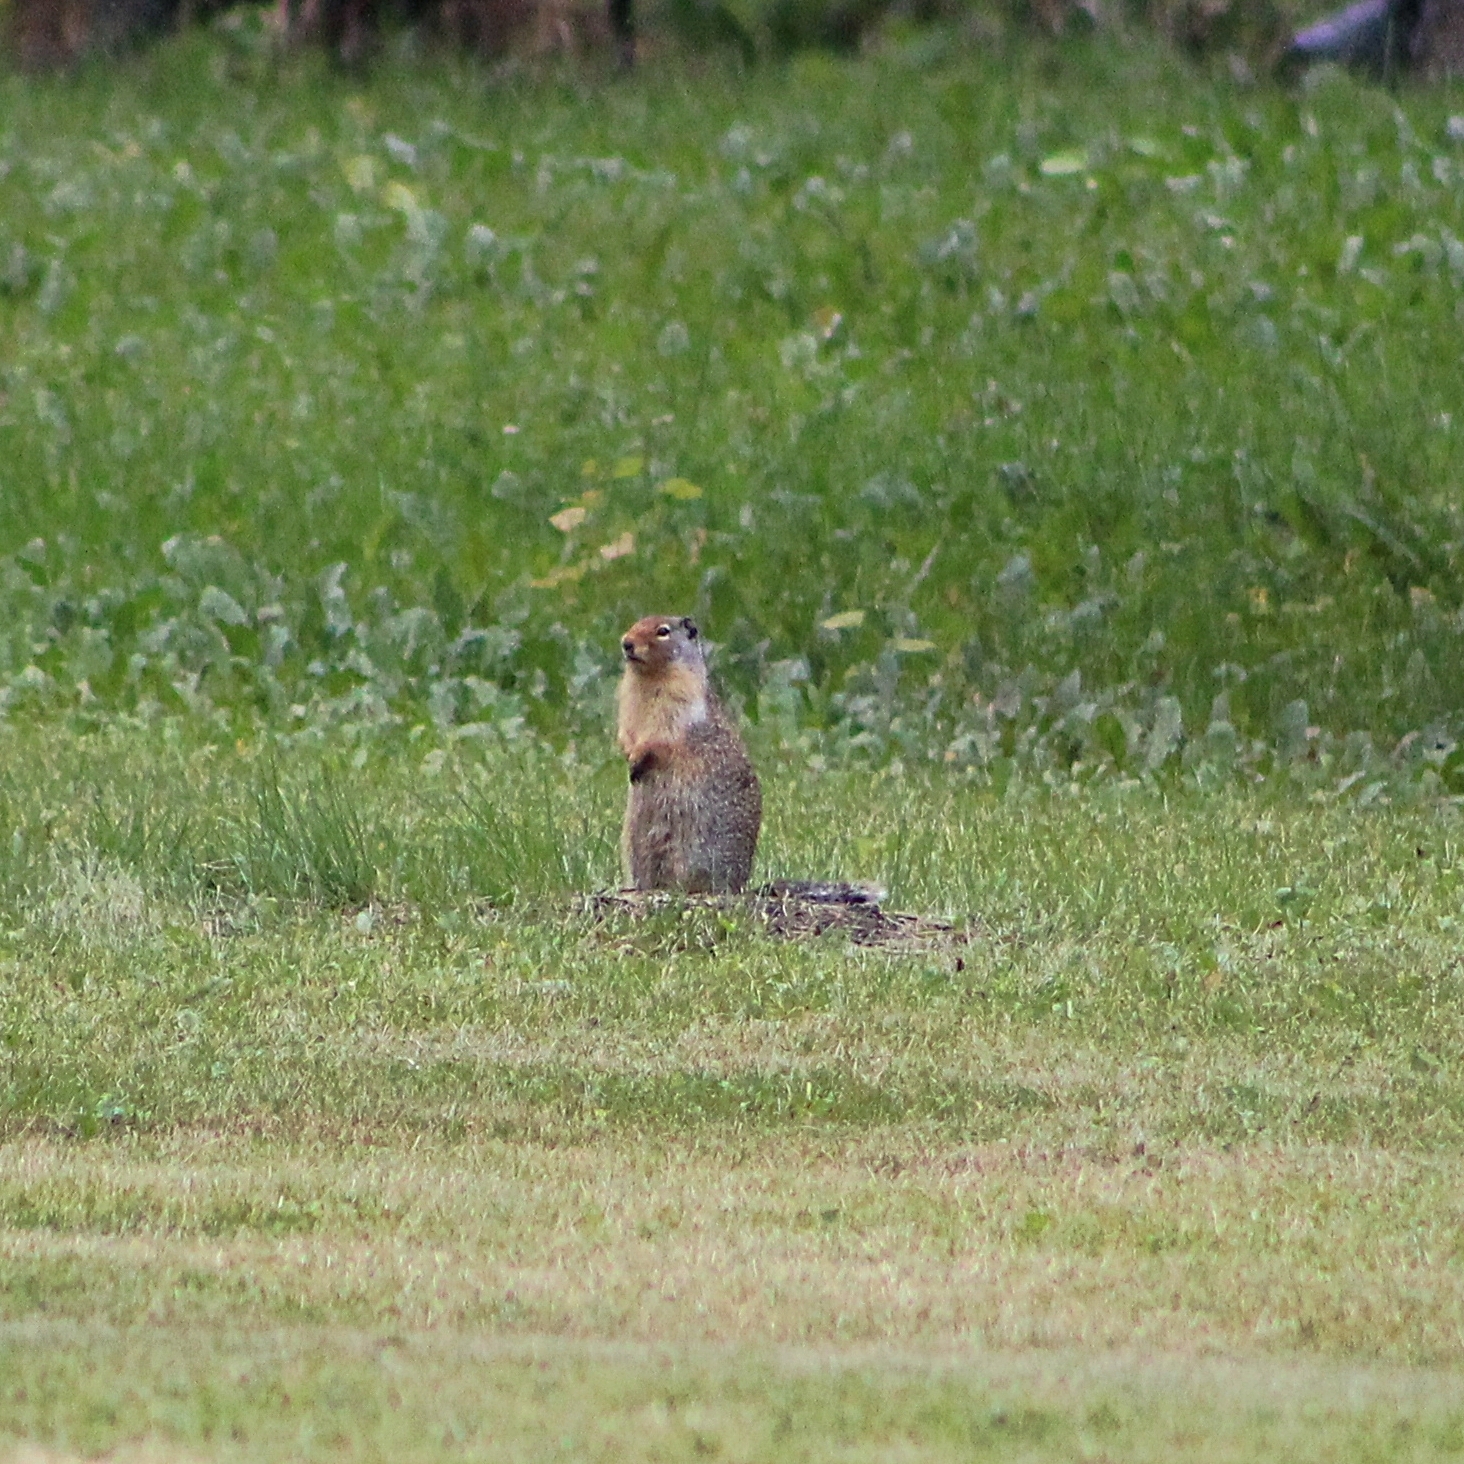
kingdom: Animalia
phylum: Chordata
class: Mammalia
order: Rodentia
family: Sciuridae
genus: Urocitellus
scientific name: Urocitellus columbianus
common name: Columbian ground squirrel
